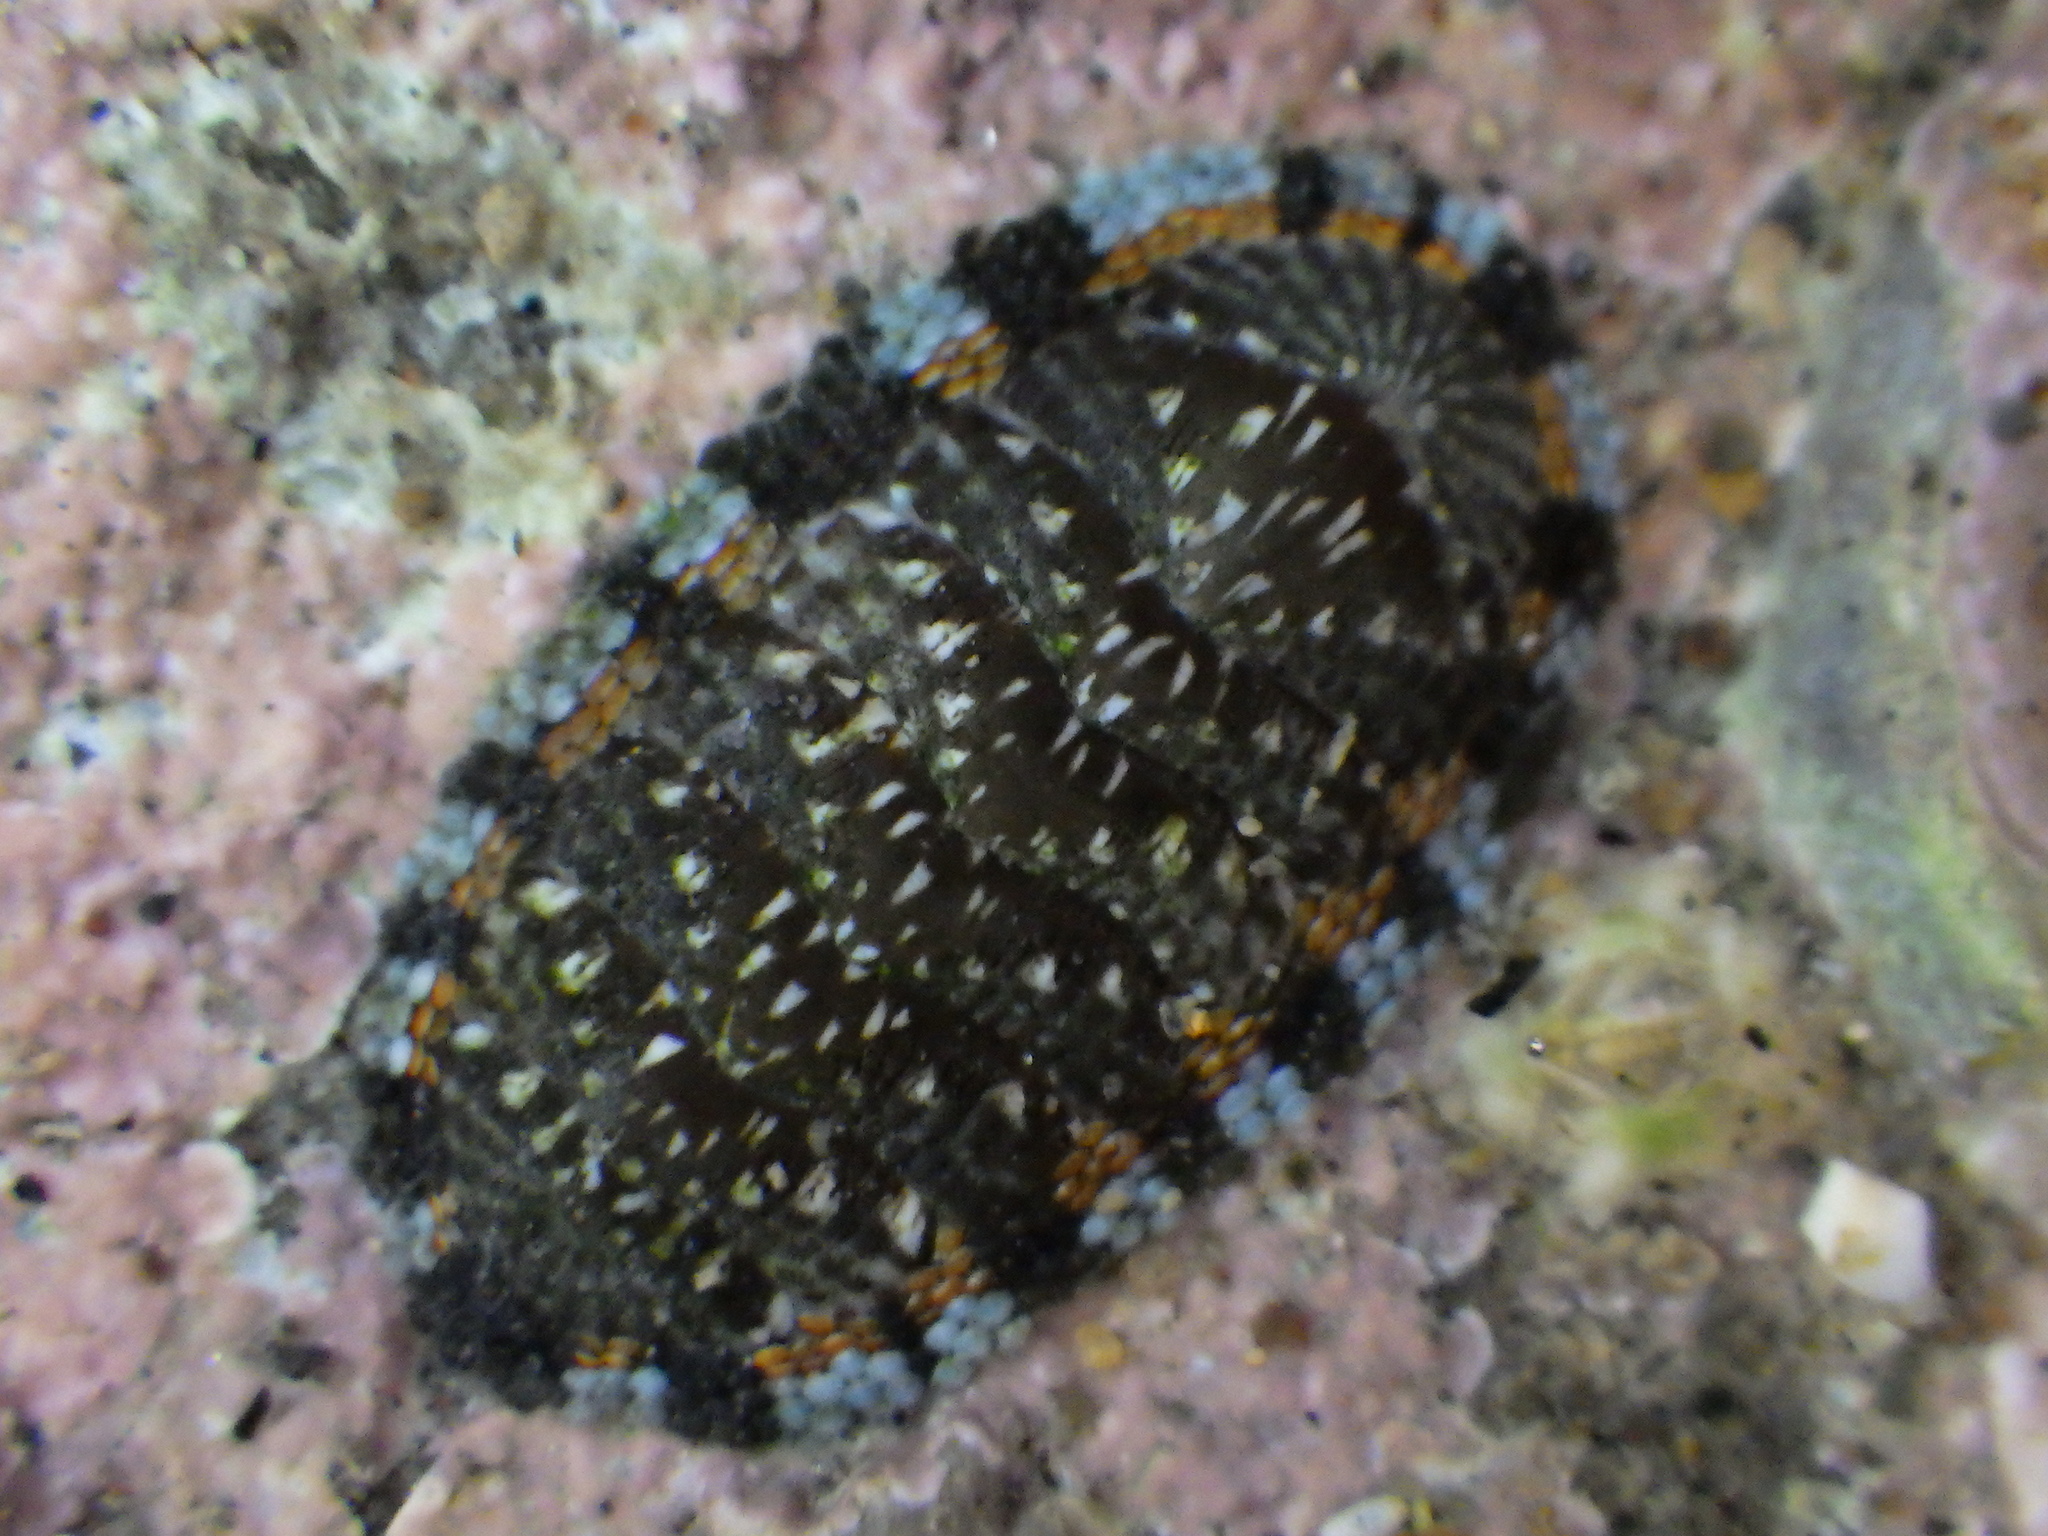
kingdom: Animalia
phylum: Mollusca
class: Polyplacophora
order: Chitonida
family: Chitonidae
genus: Sypharochiton
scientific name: Sypharochiton sinclairi
